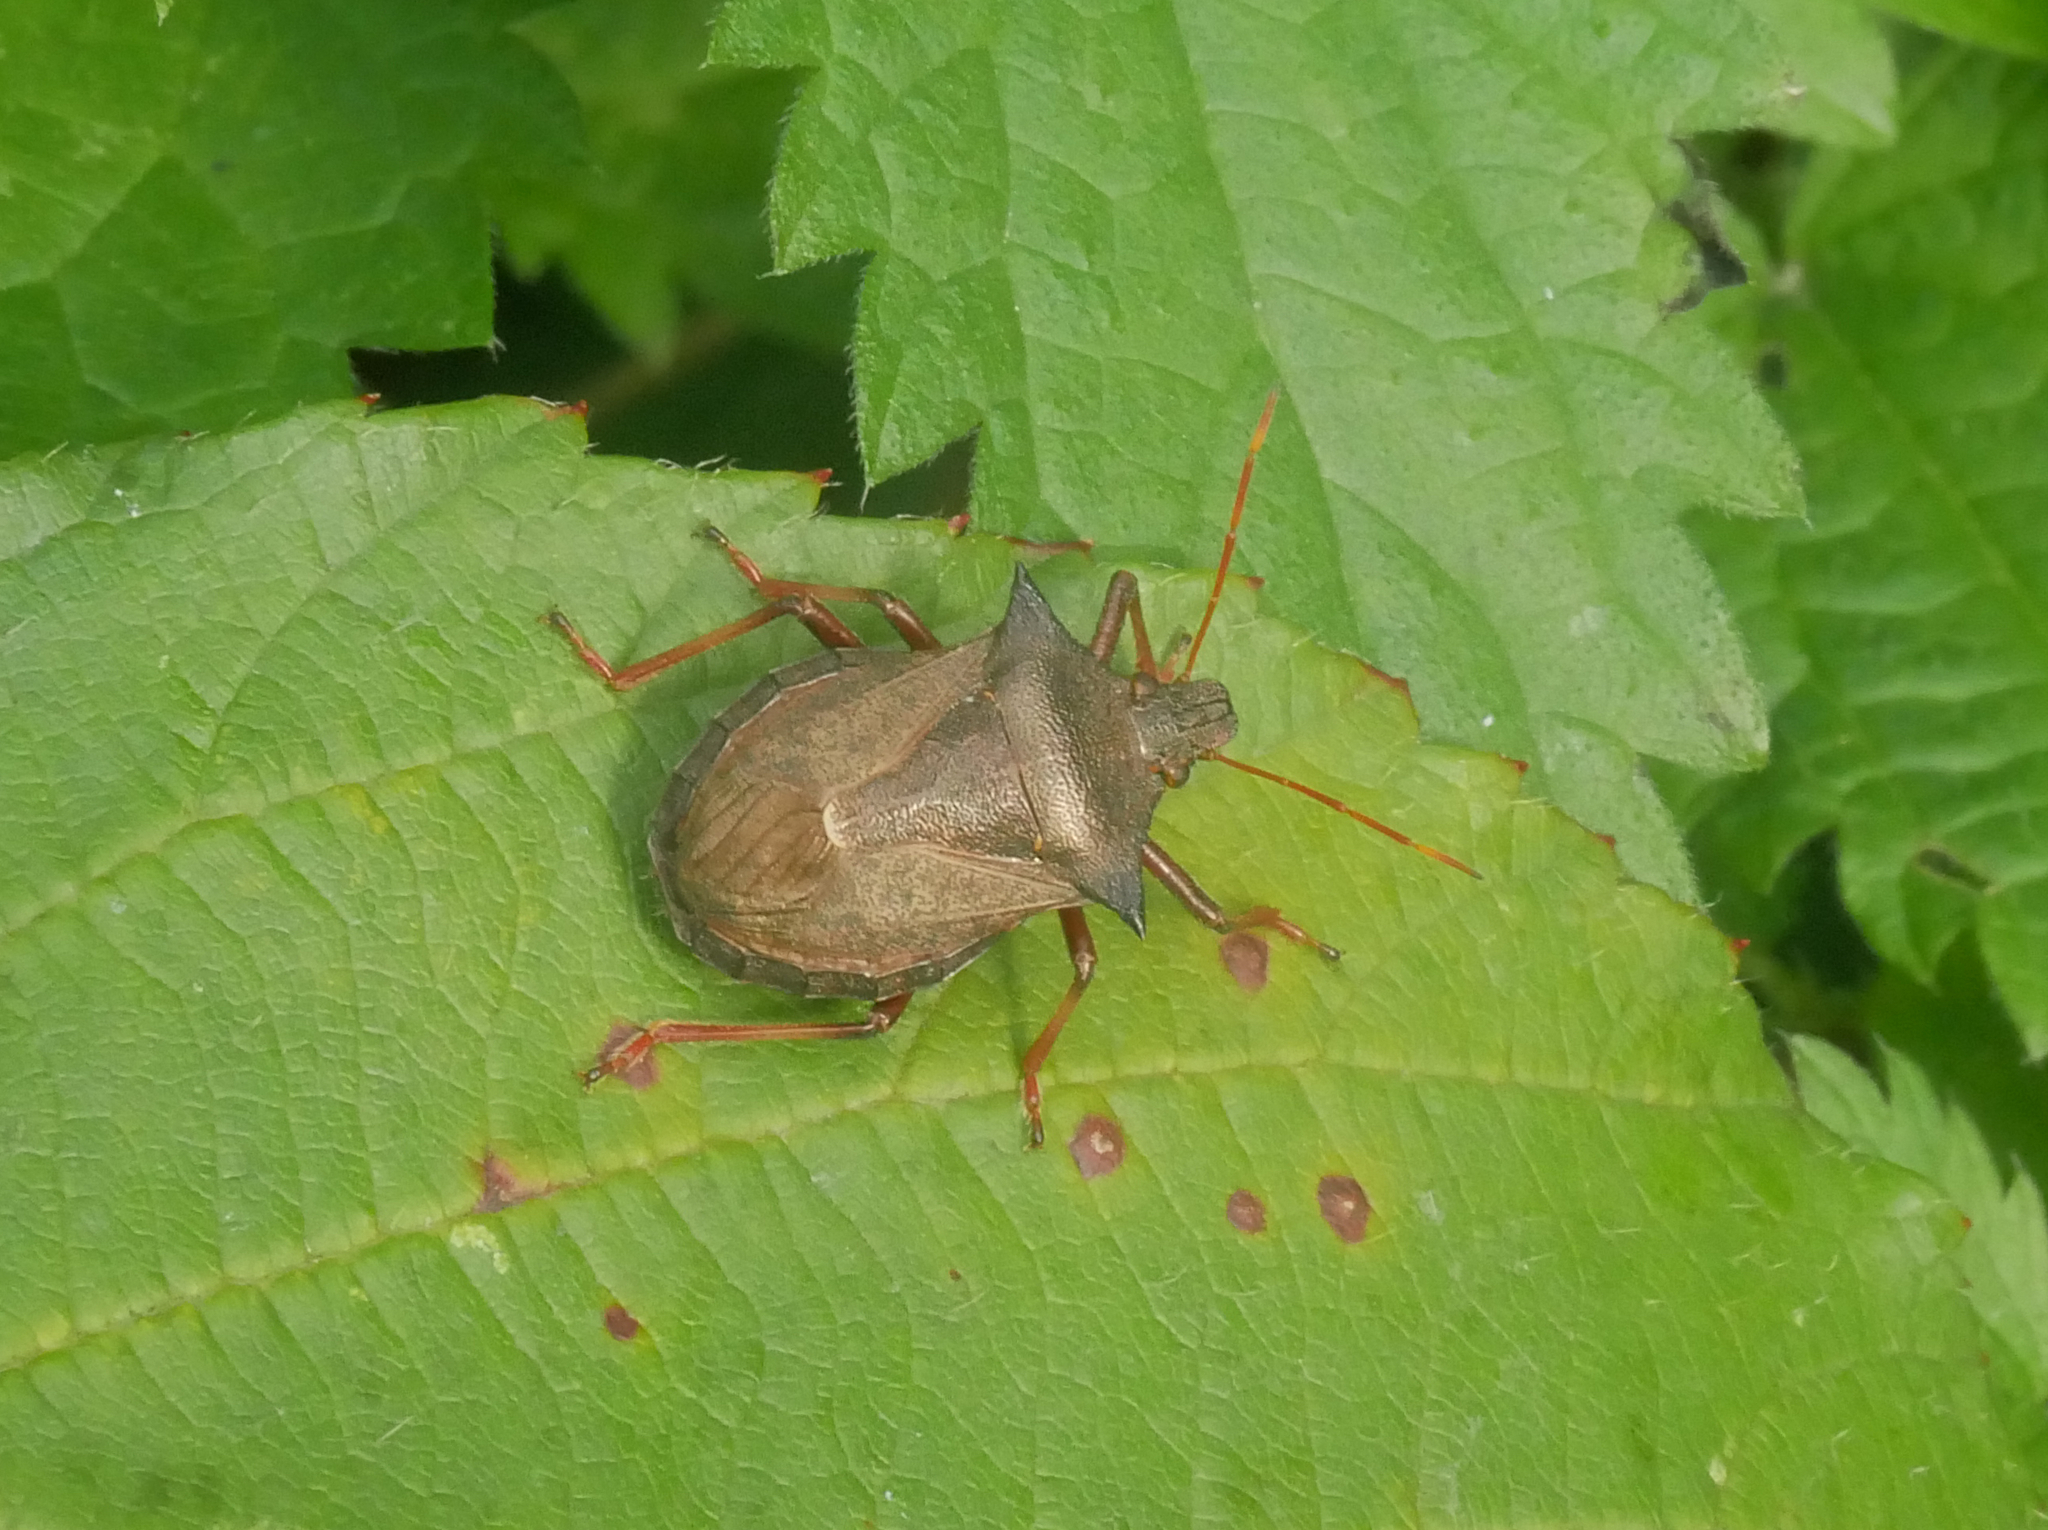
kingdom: Animalia
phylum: Arthropoda
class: Insecta
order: Hemiptera
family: Pentatomidae
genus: Picromerus
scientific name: Picromerus bidens
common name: Spiked shieldbug
